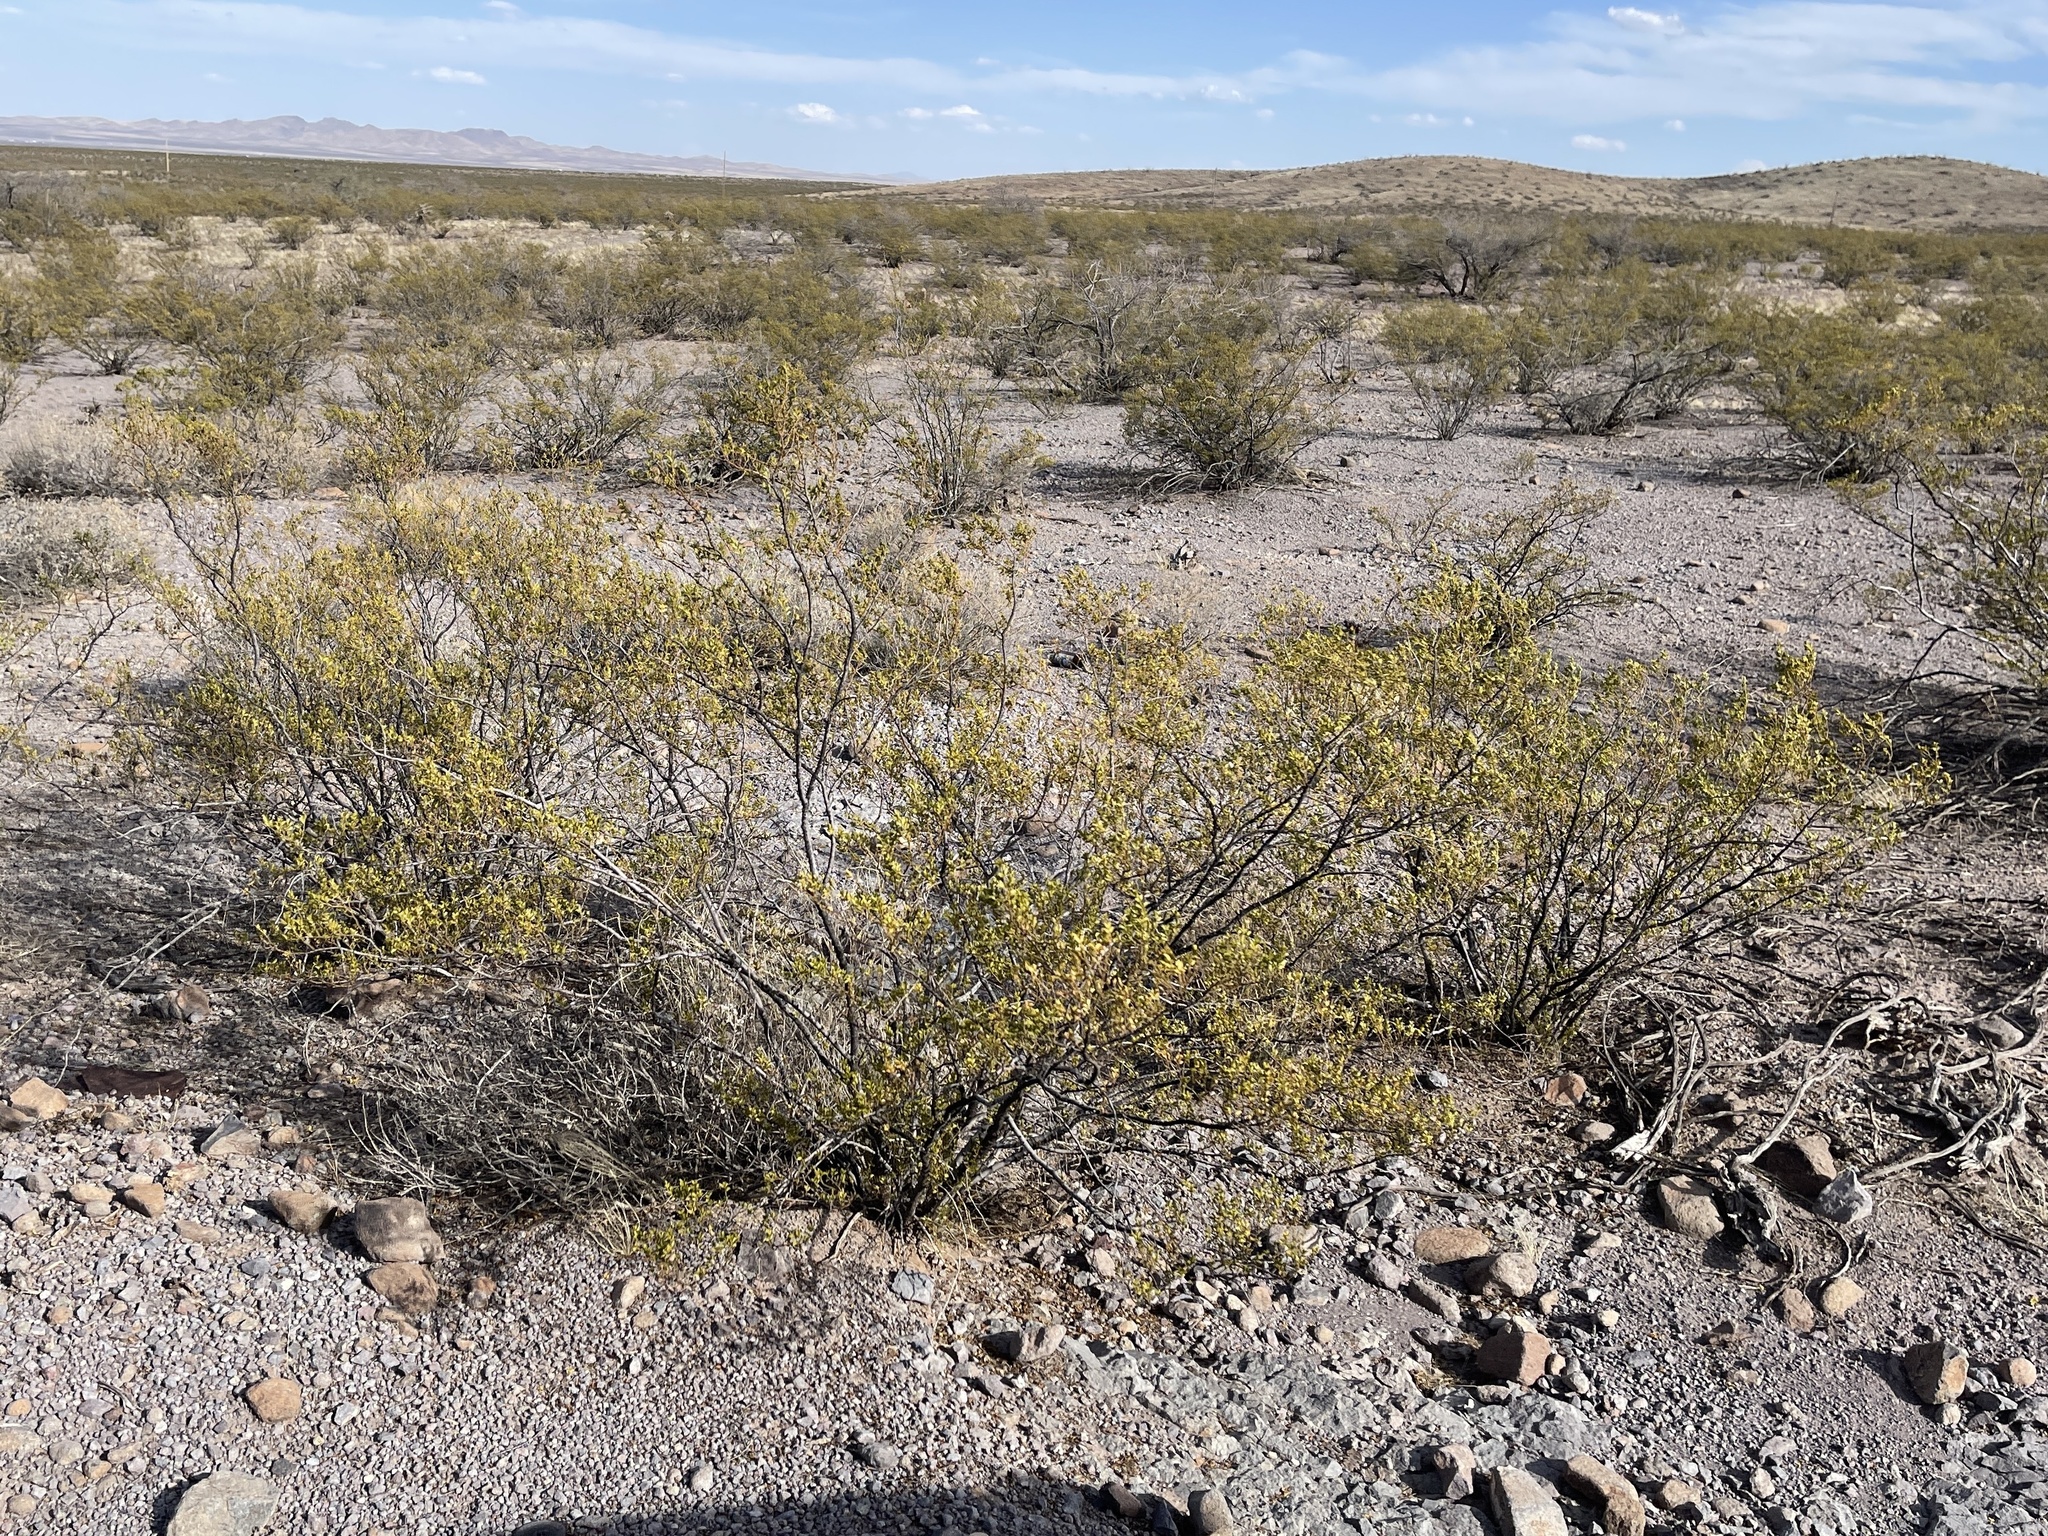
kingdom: Plantae
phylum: Tracheophyta
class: Magnoliopsida
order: Zygophyllales
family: Zygophyllaceae
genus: Larrea
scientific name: Larrea tridentata
